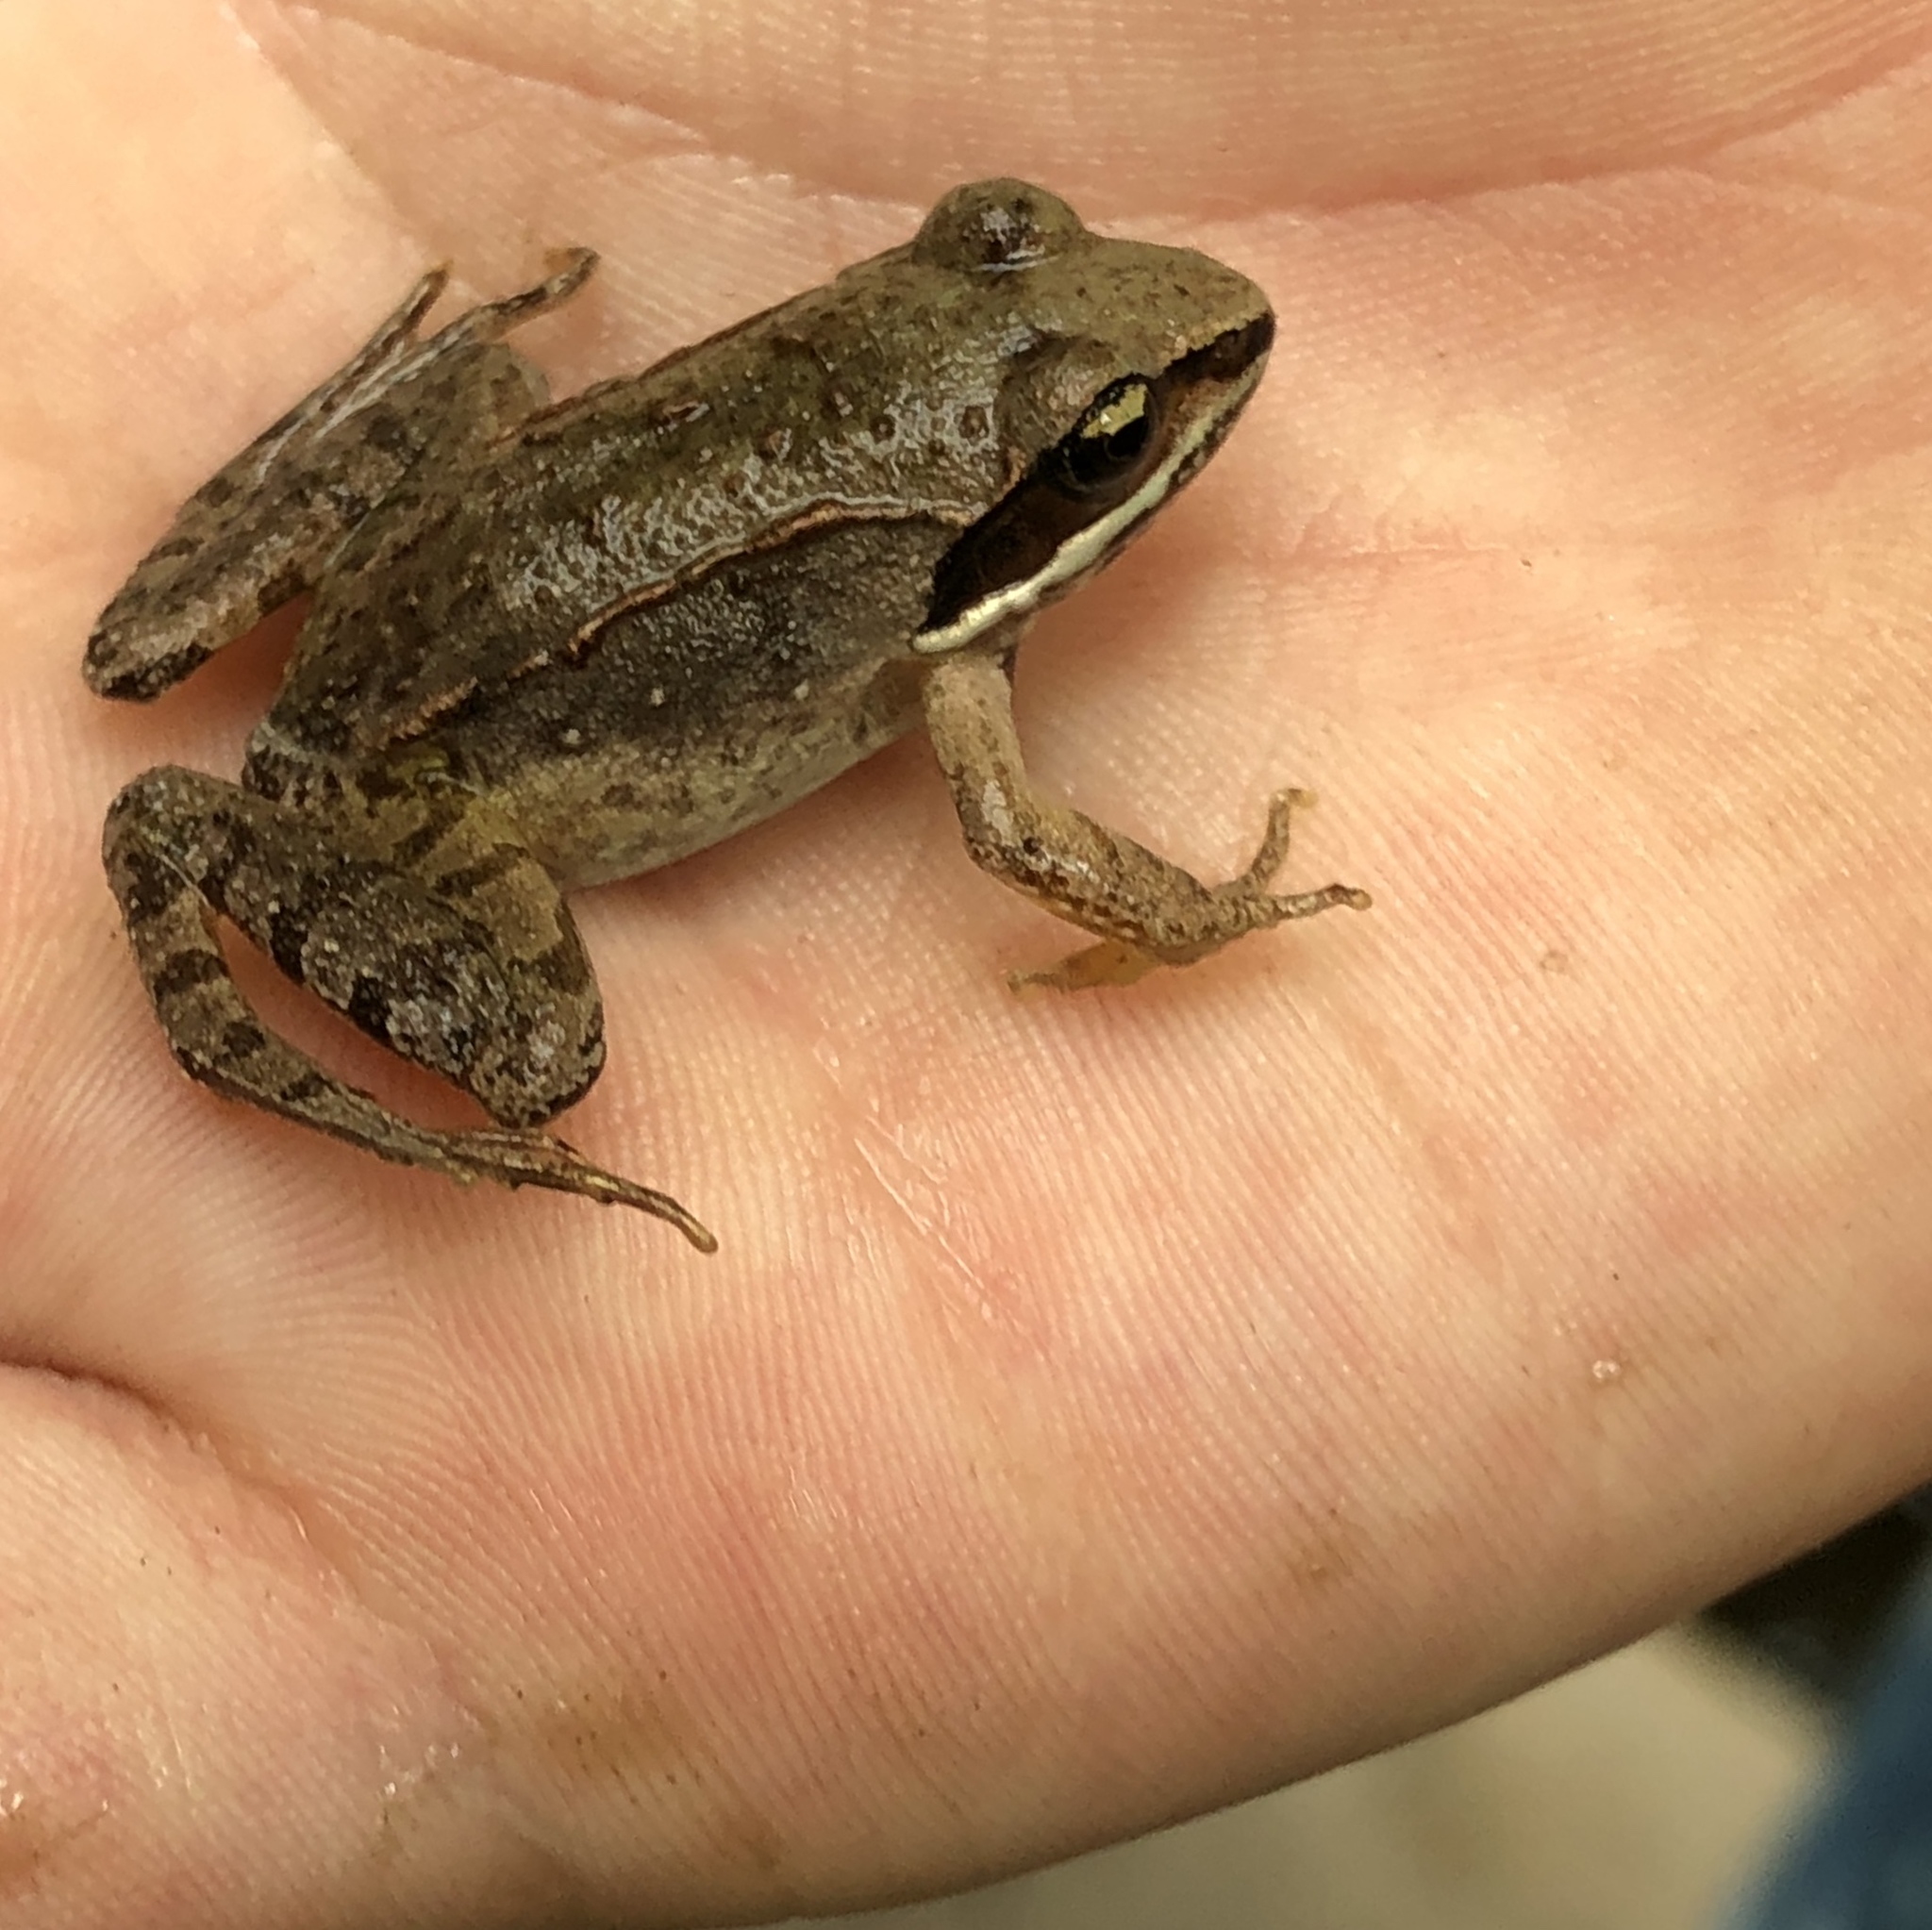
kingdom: Animalia
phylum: Chordata
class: Amphibia
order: Anura
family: Ranidae
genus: Lithobates
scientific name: Lithobates sylvaticus
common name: Wood frog
